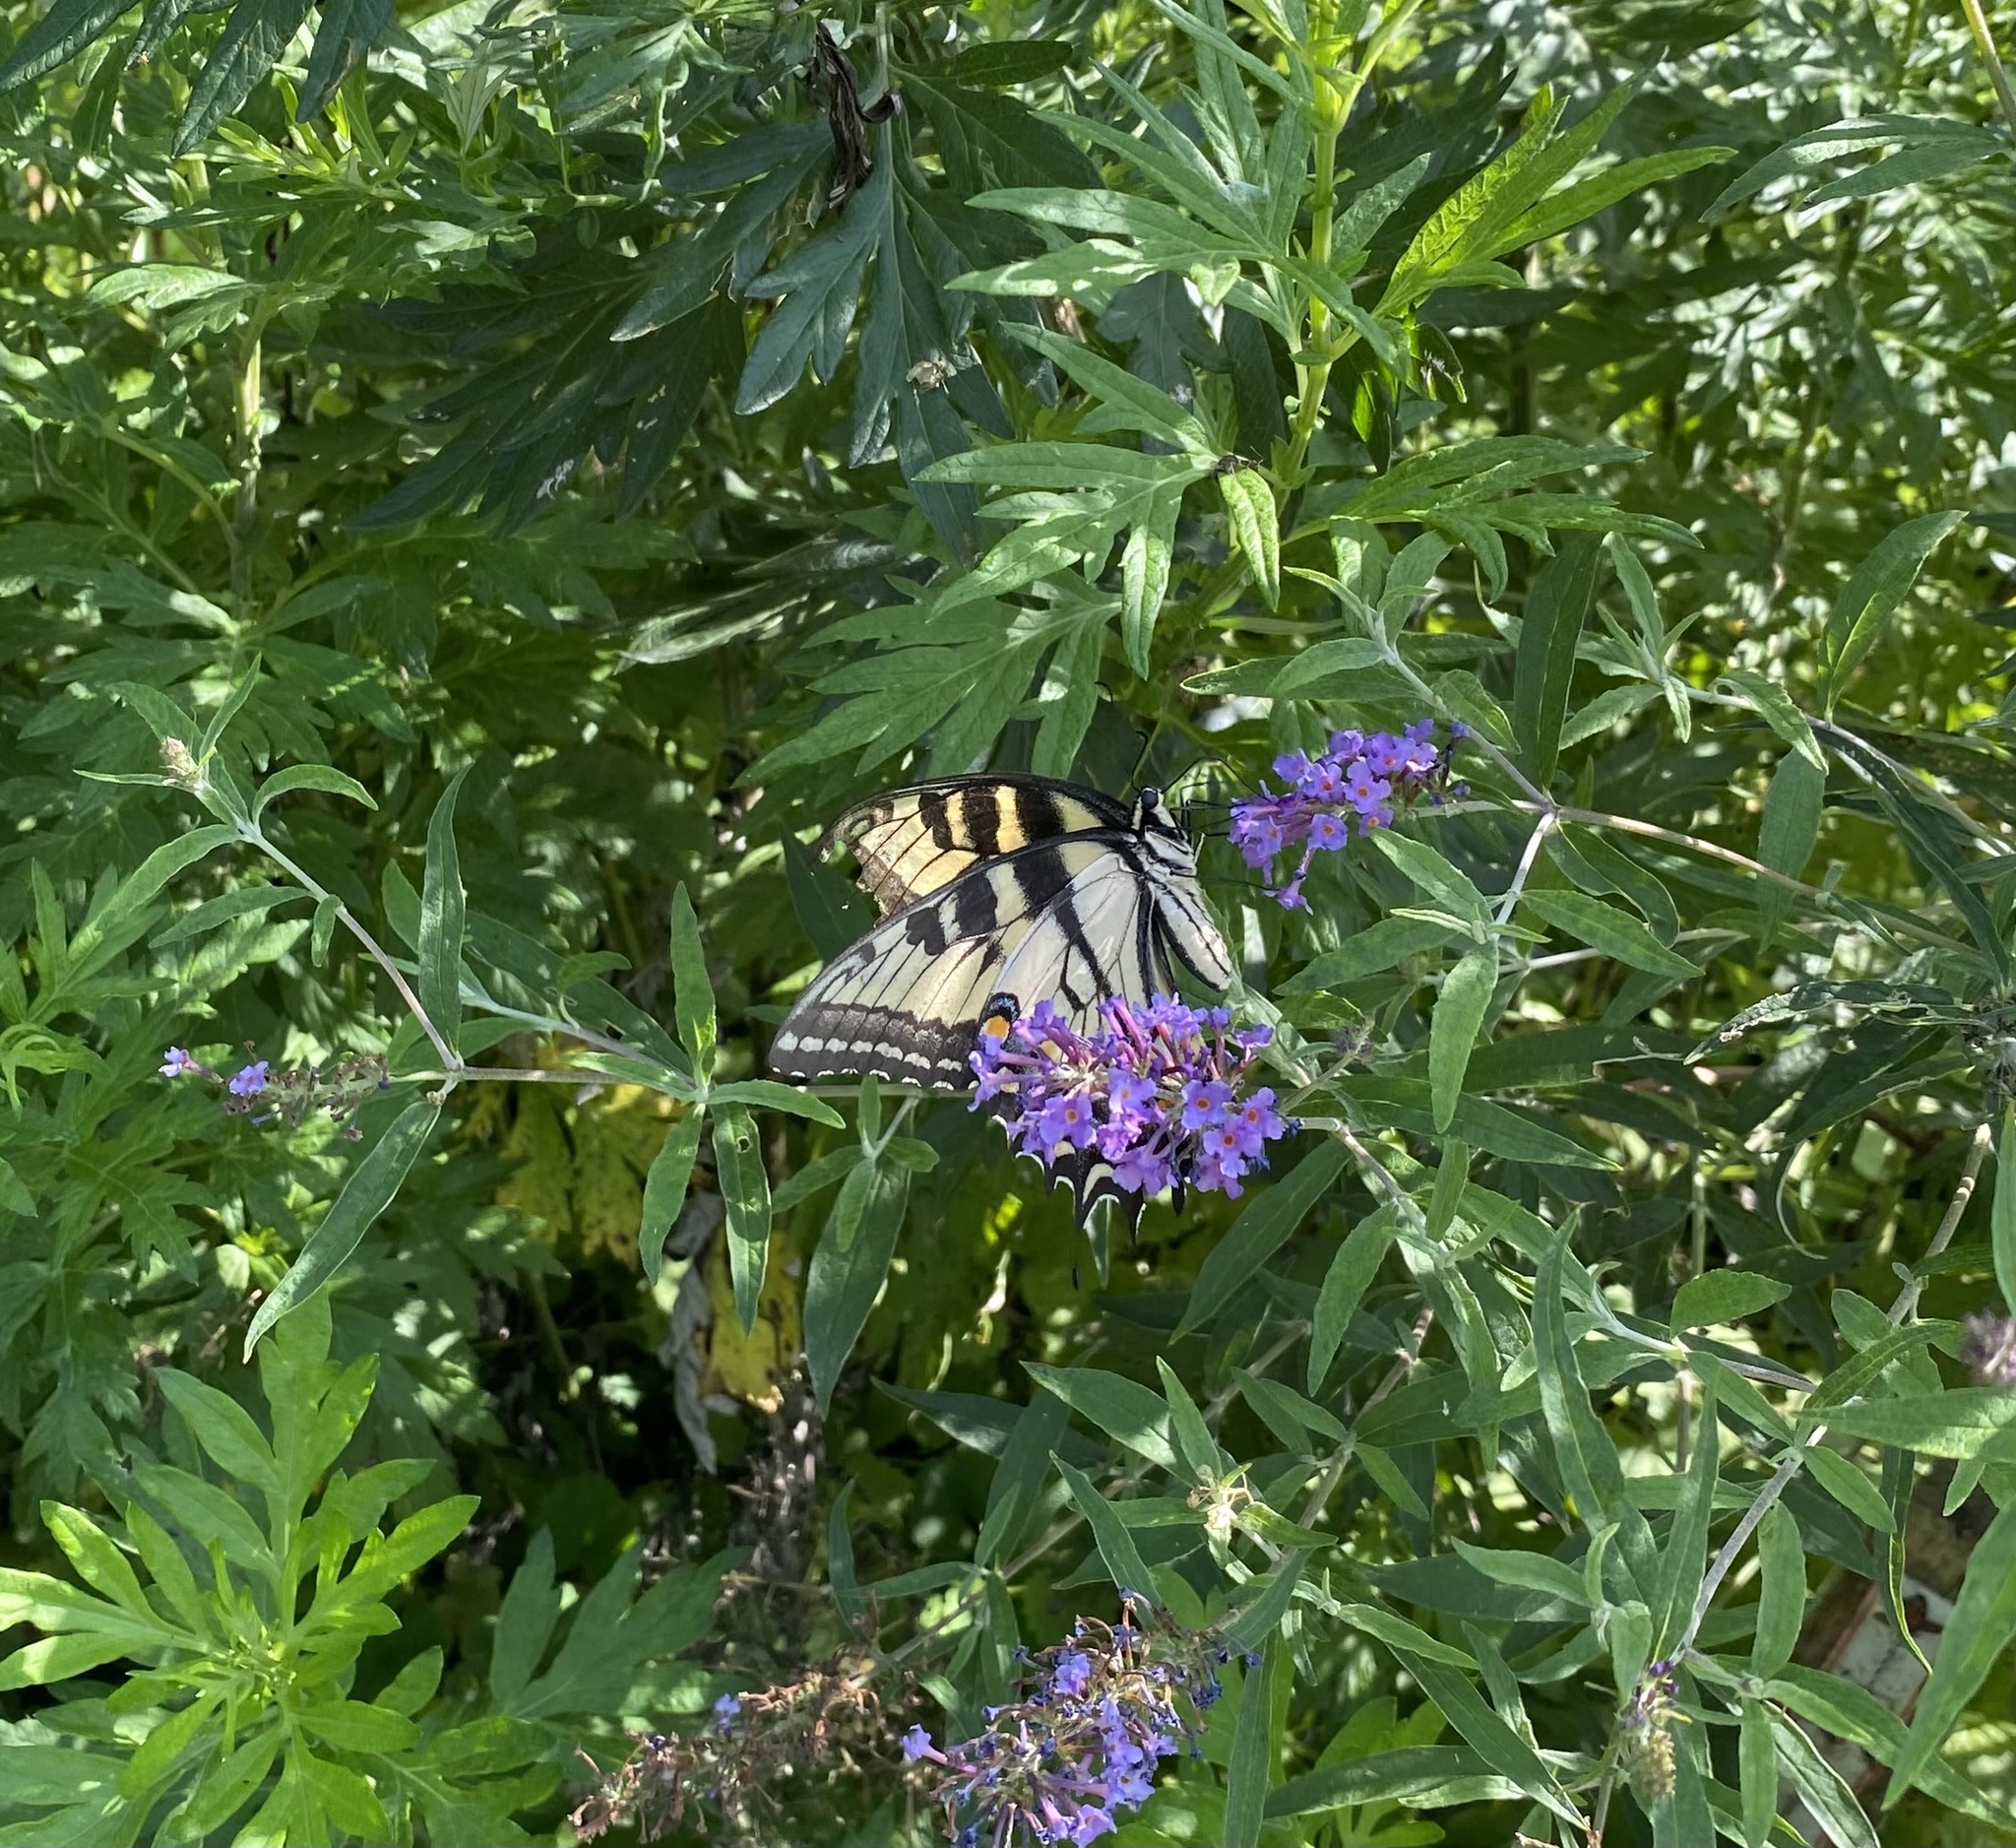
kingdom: Animalia
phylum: Arthropoda
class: Insecta
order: Lepidoptera
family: Papilionidae
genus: Papilio
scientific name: Papilio glaucus
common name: Tiger swallowtail
